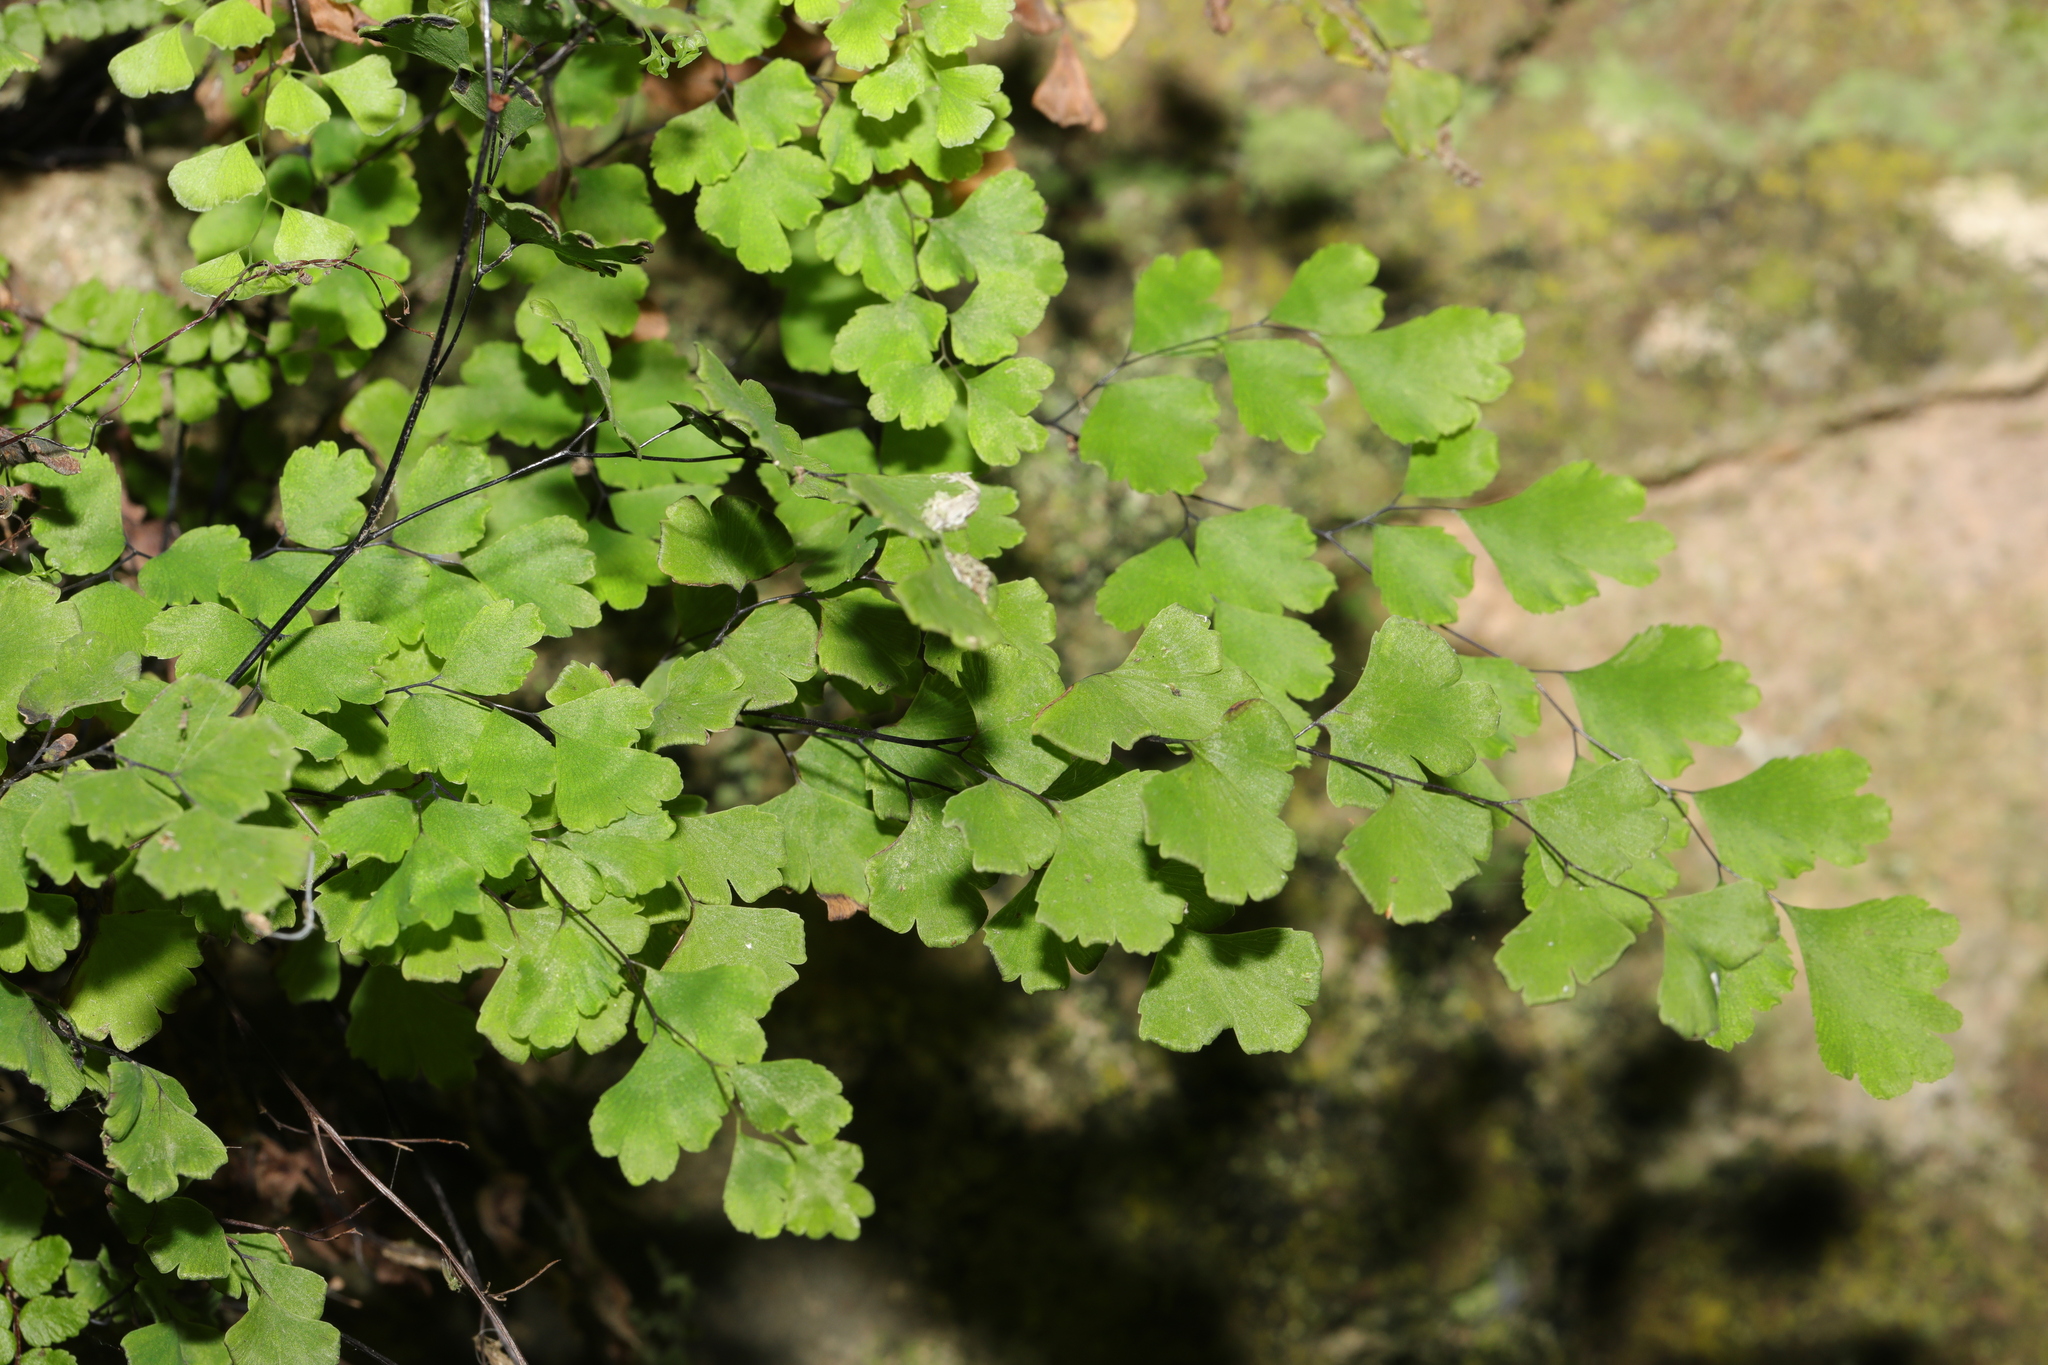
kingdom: Plantae
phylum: Tracheophyta
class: Polypodiopsida
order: Polypodiales
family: Pteridaceae
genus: Adiantum
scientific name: Adiantum capillus-veneris
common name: Maidenhair fern
